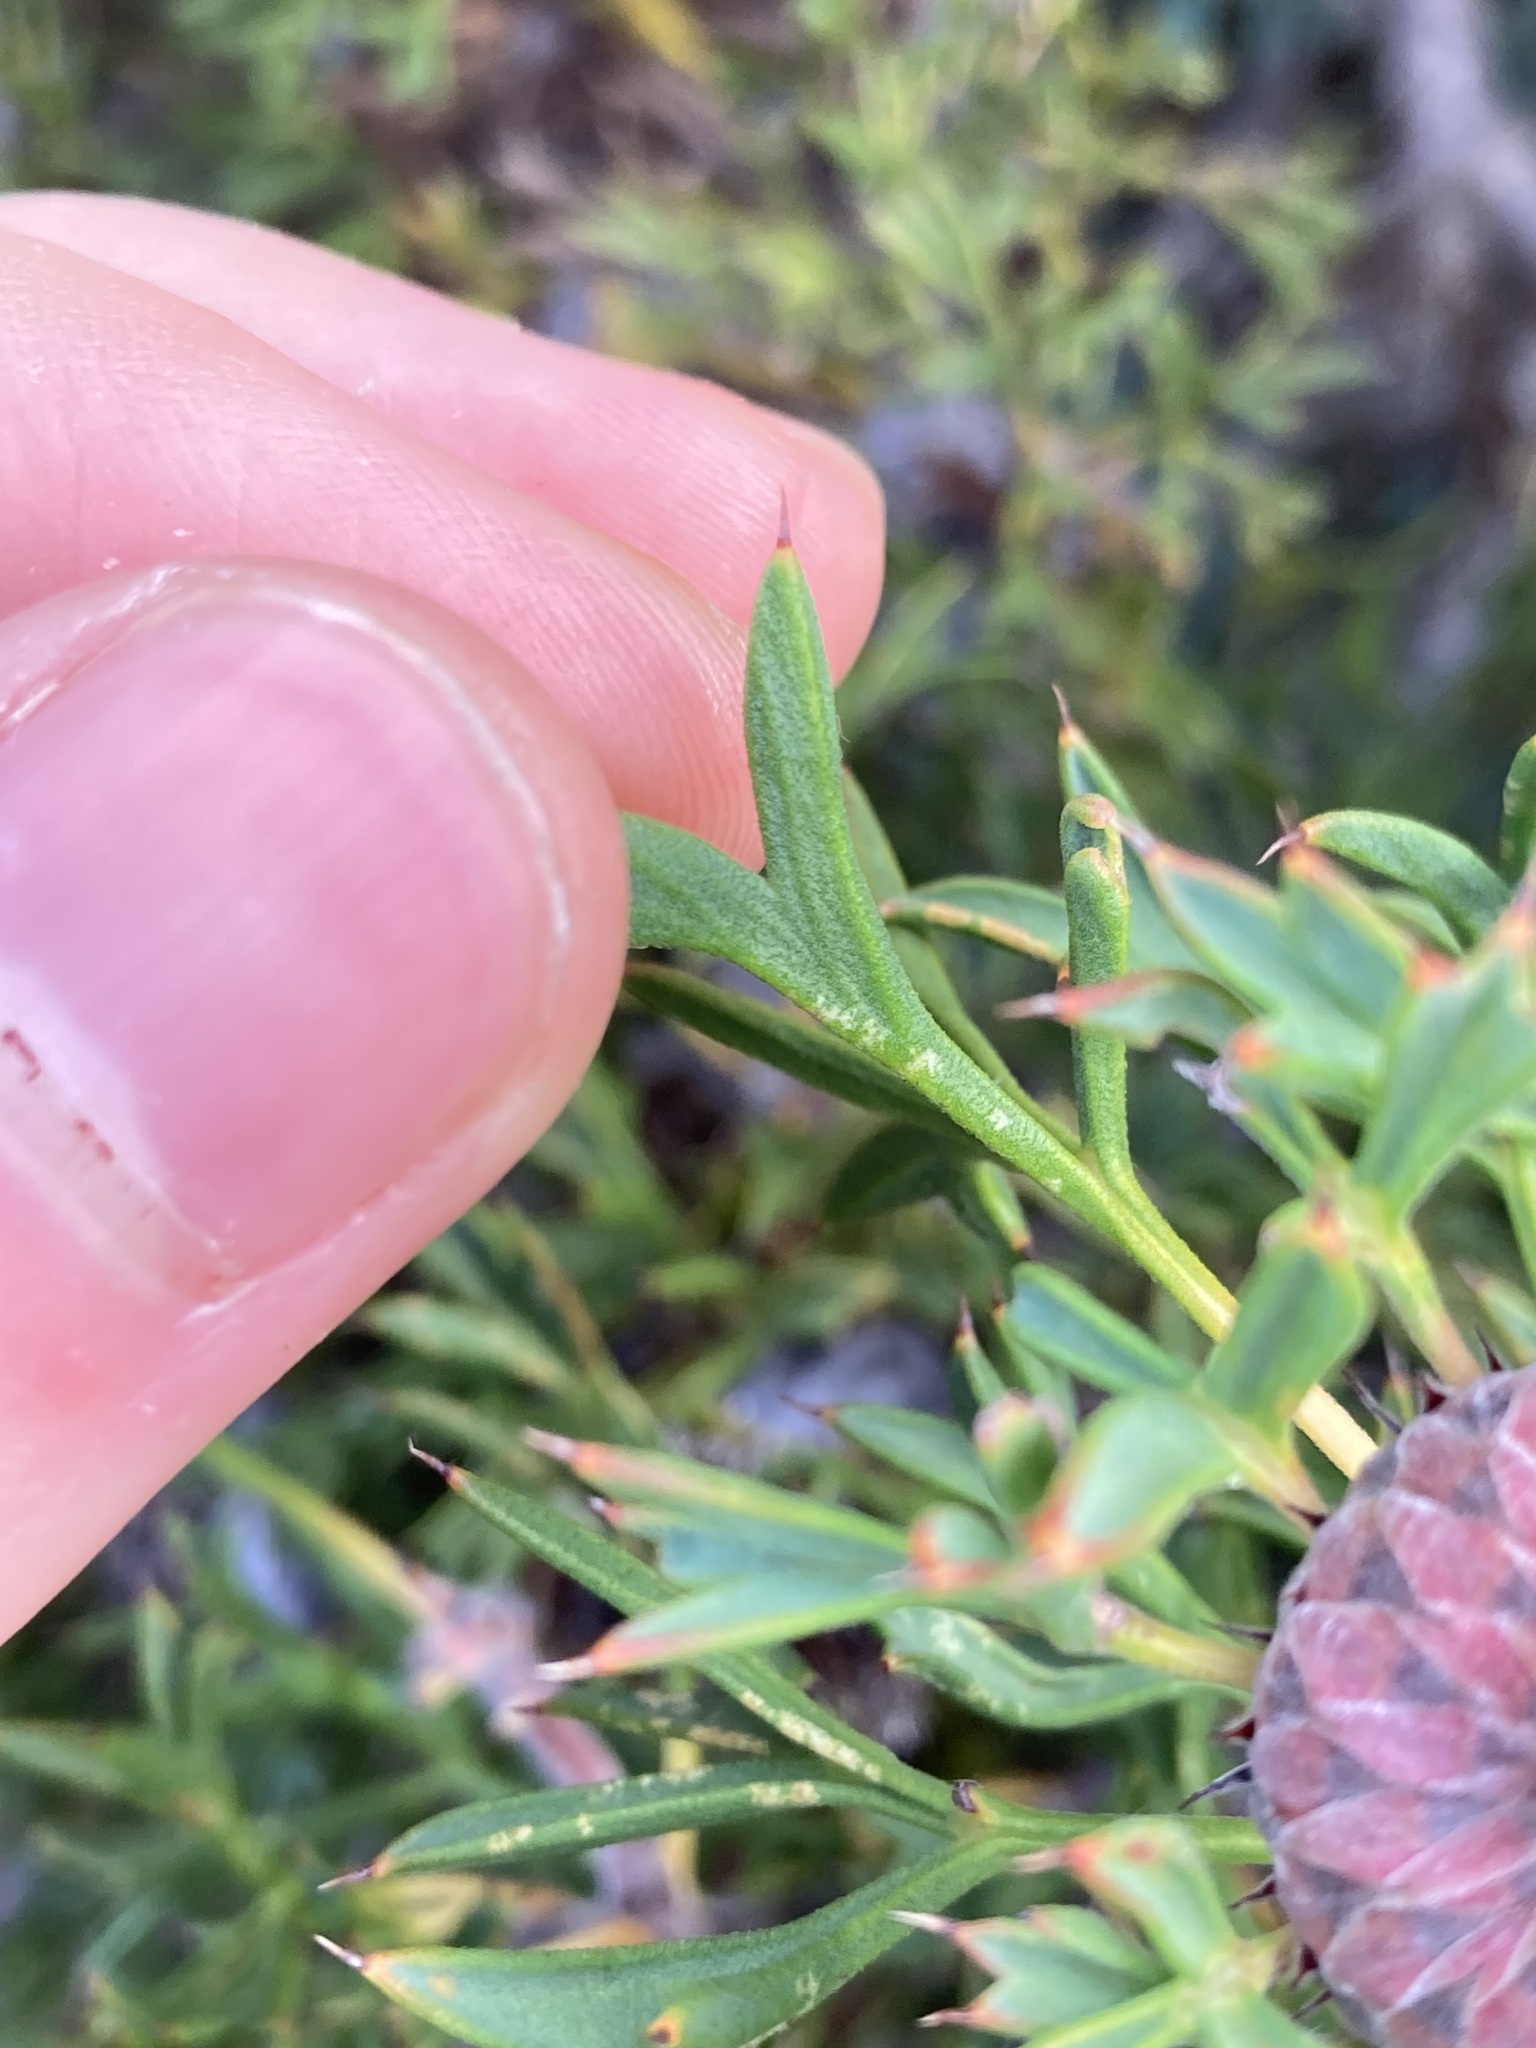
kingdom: Plantae
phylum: Tracheophyta
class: Magnoliopsida
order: Proteales
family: Proteaceae
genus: Isopogon
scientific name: Isopogon dubius
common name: Pincushion-coneflower
